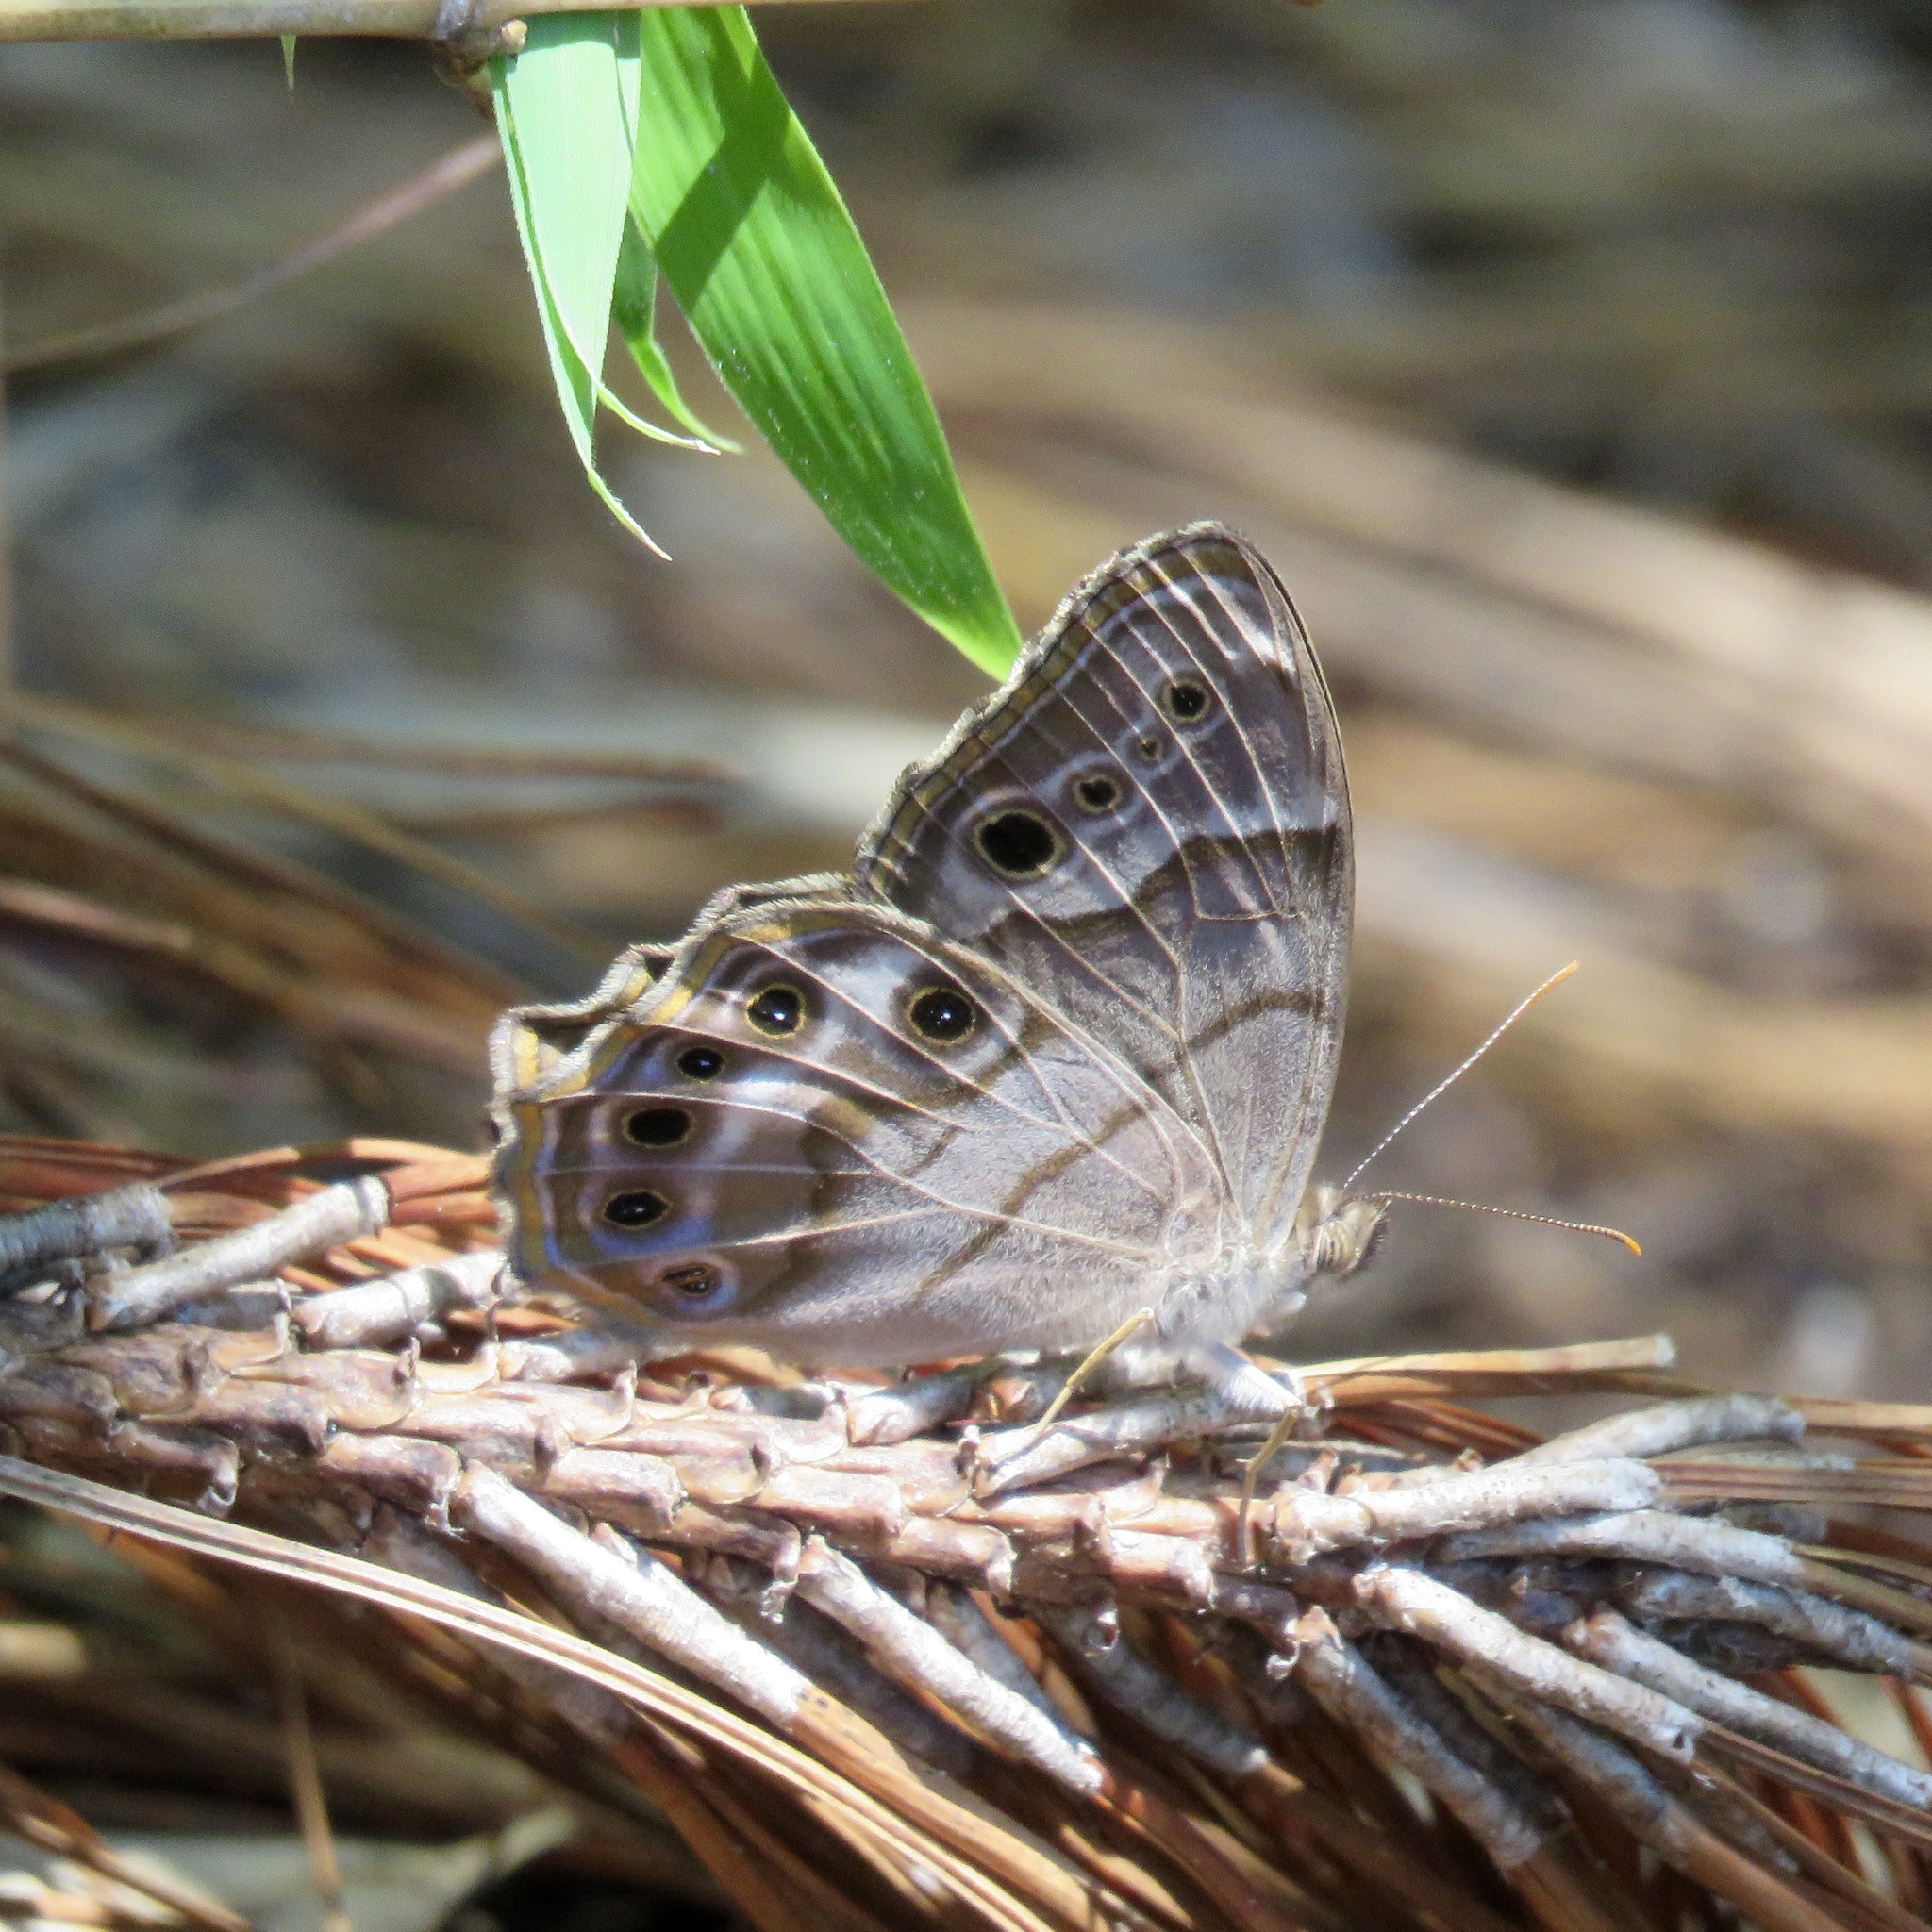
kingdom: Animalia
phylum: Arthropoda
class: Insecta
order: Lepidoptera
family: Nymphalidae
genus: Enodia
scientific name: Enodia portlandia
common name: Southern pearly-eye
